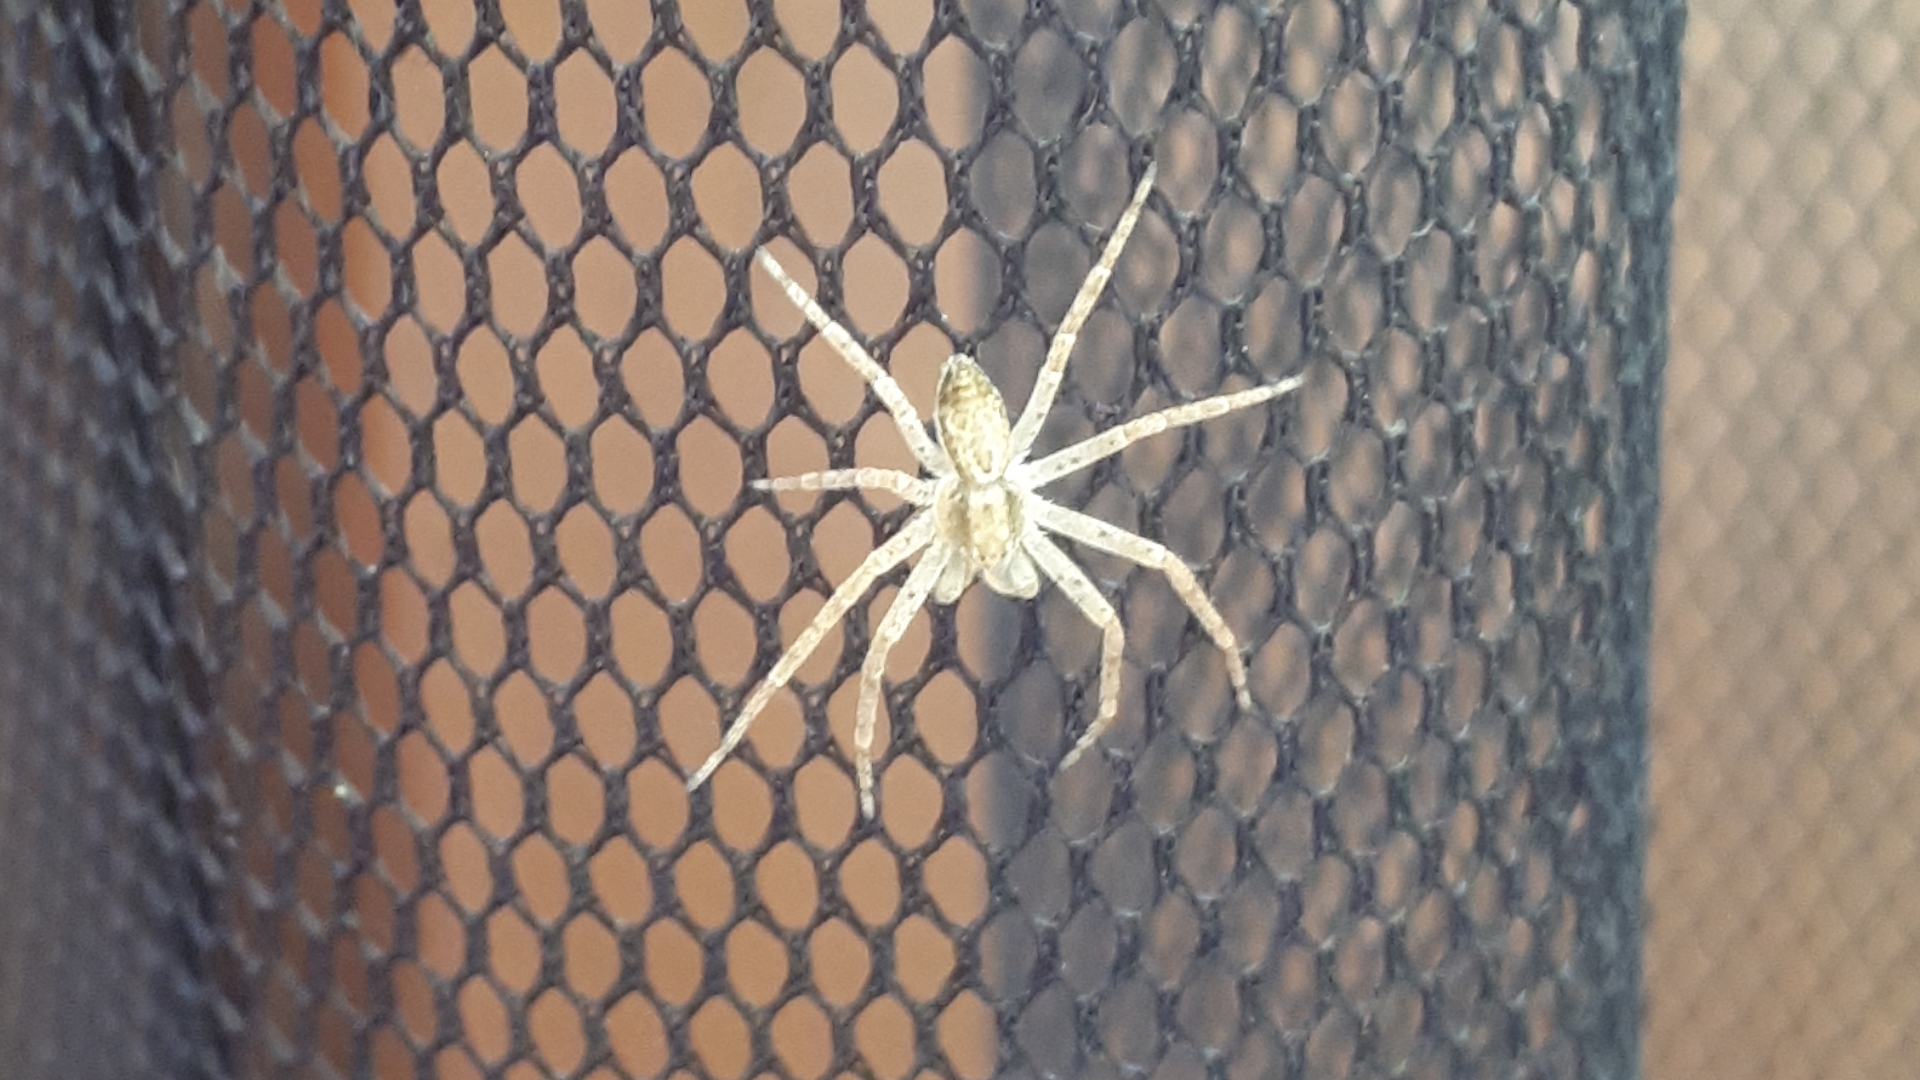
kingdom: Animalia
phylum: Arthropoda
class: Arachnida
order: Araneae
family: Philodromidae
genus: Philodromus
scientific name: Philodromus dispar
